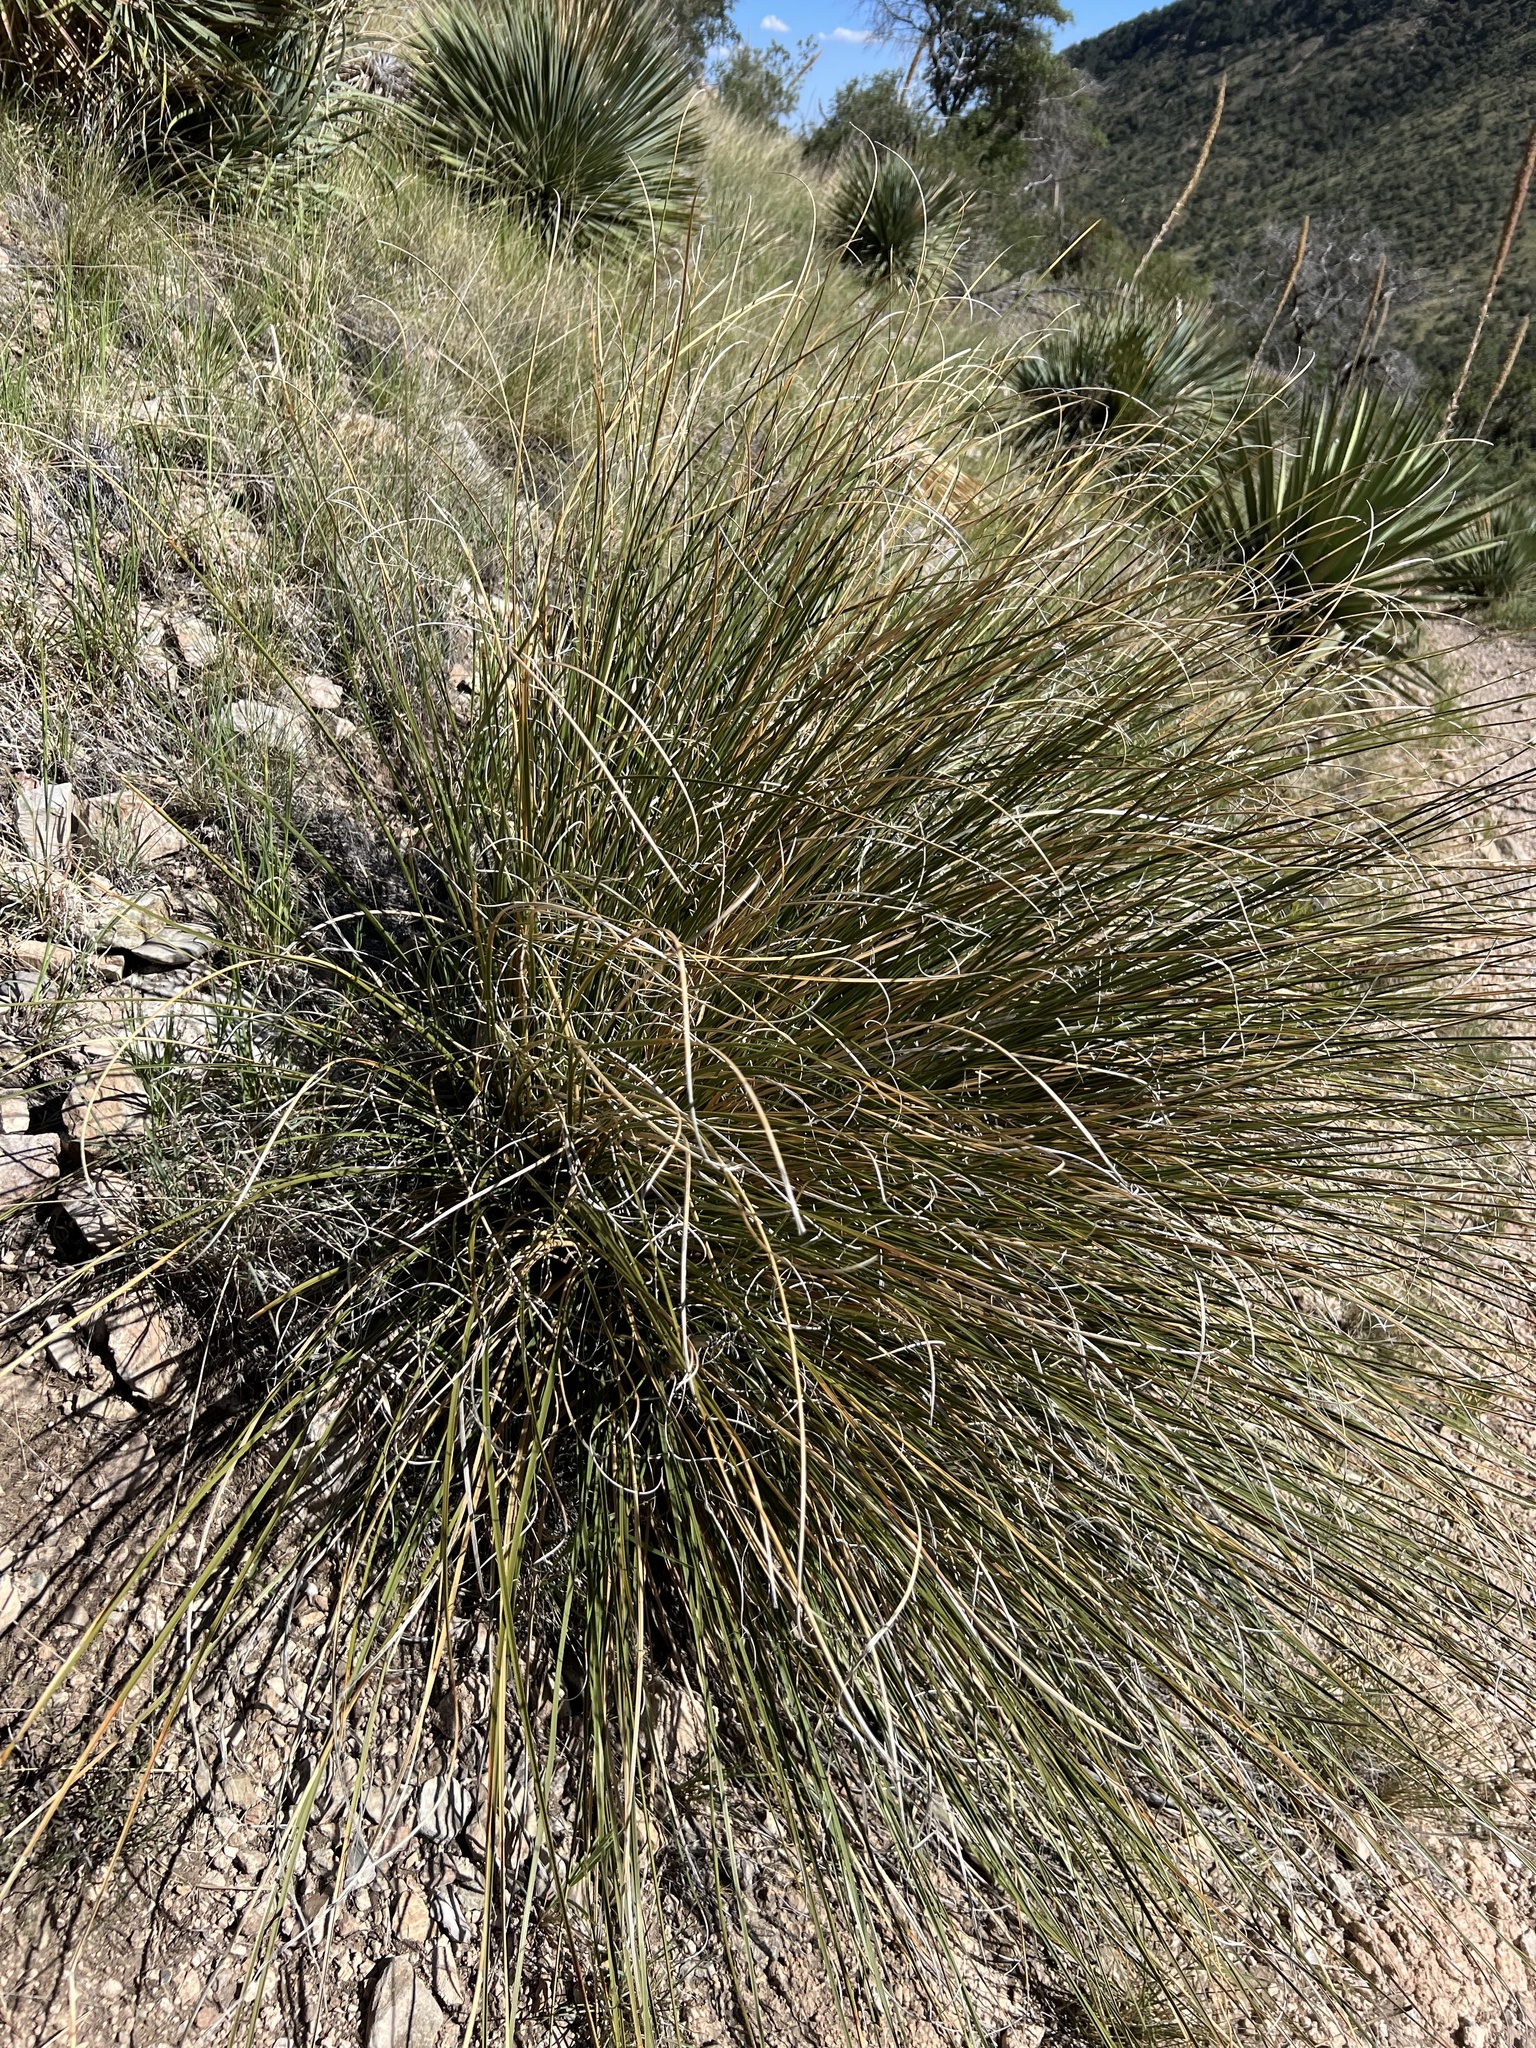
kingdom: Plantae
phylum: Tracheophyta
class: Liliopsida
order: Asparagales
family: Asparagaceae
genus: Nolina
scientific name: Nolina microcarpa
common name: Bear-grass
